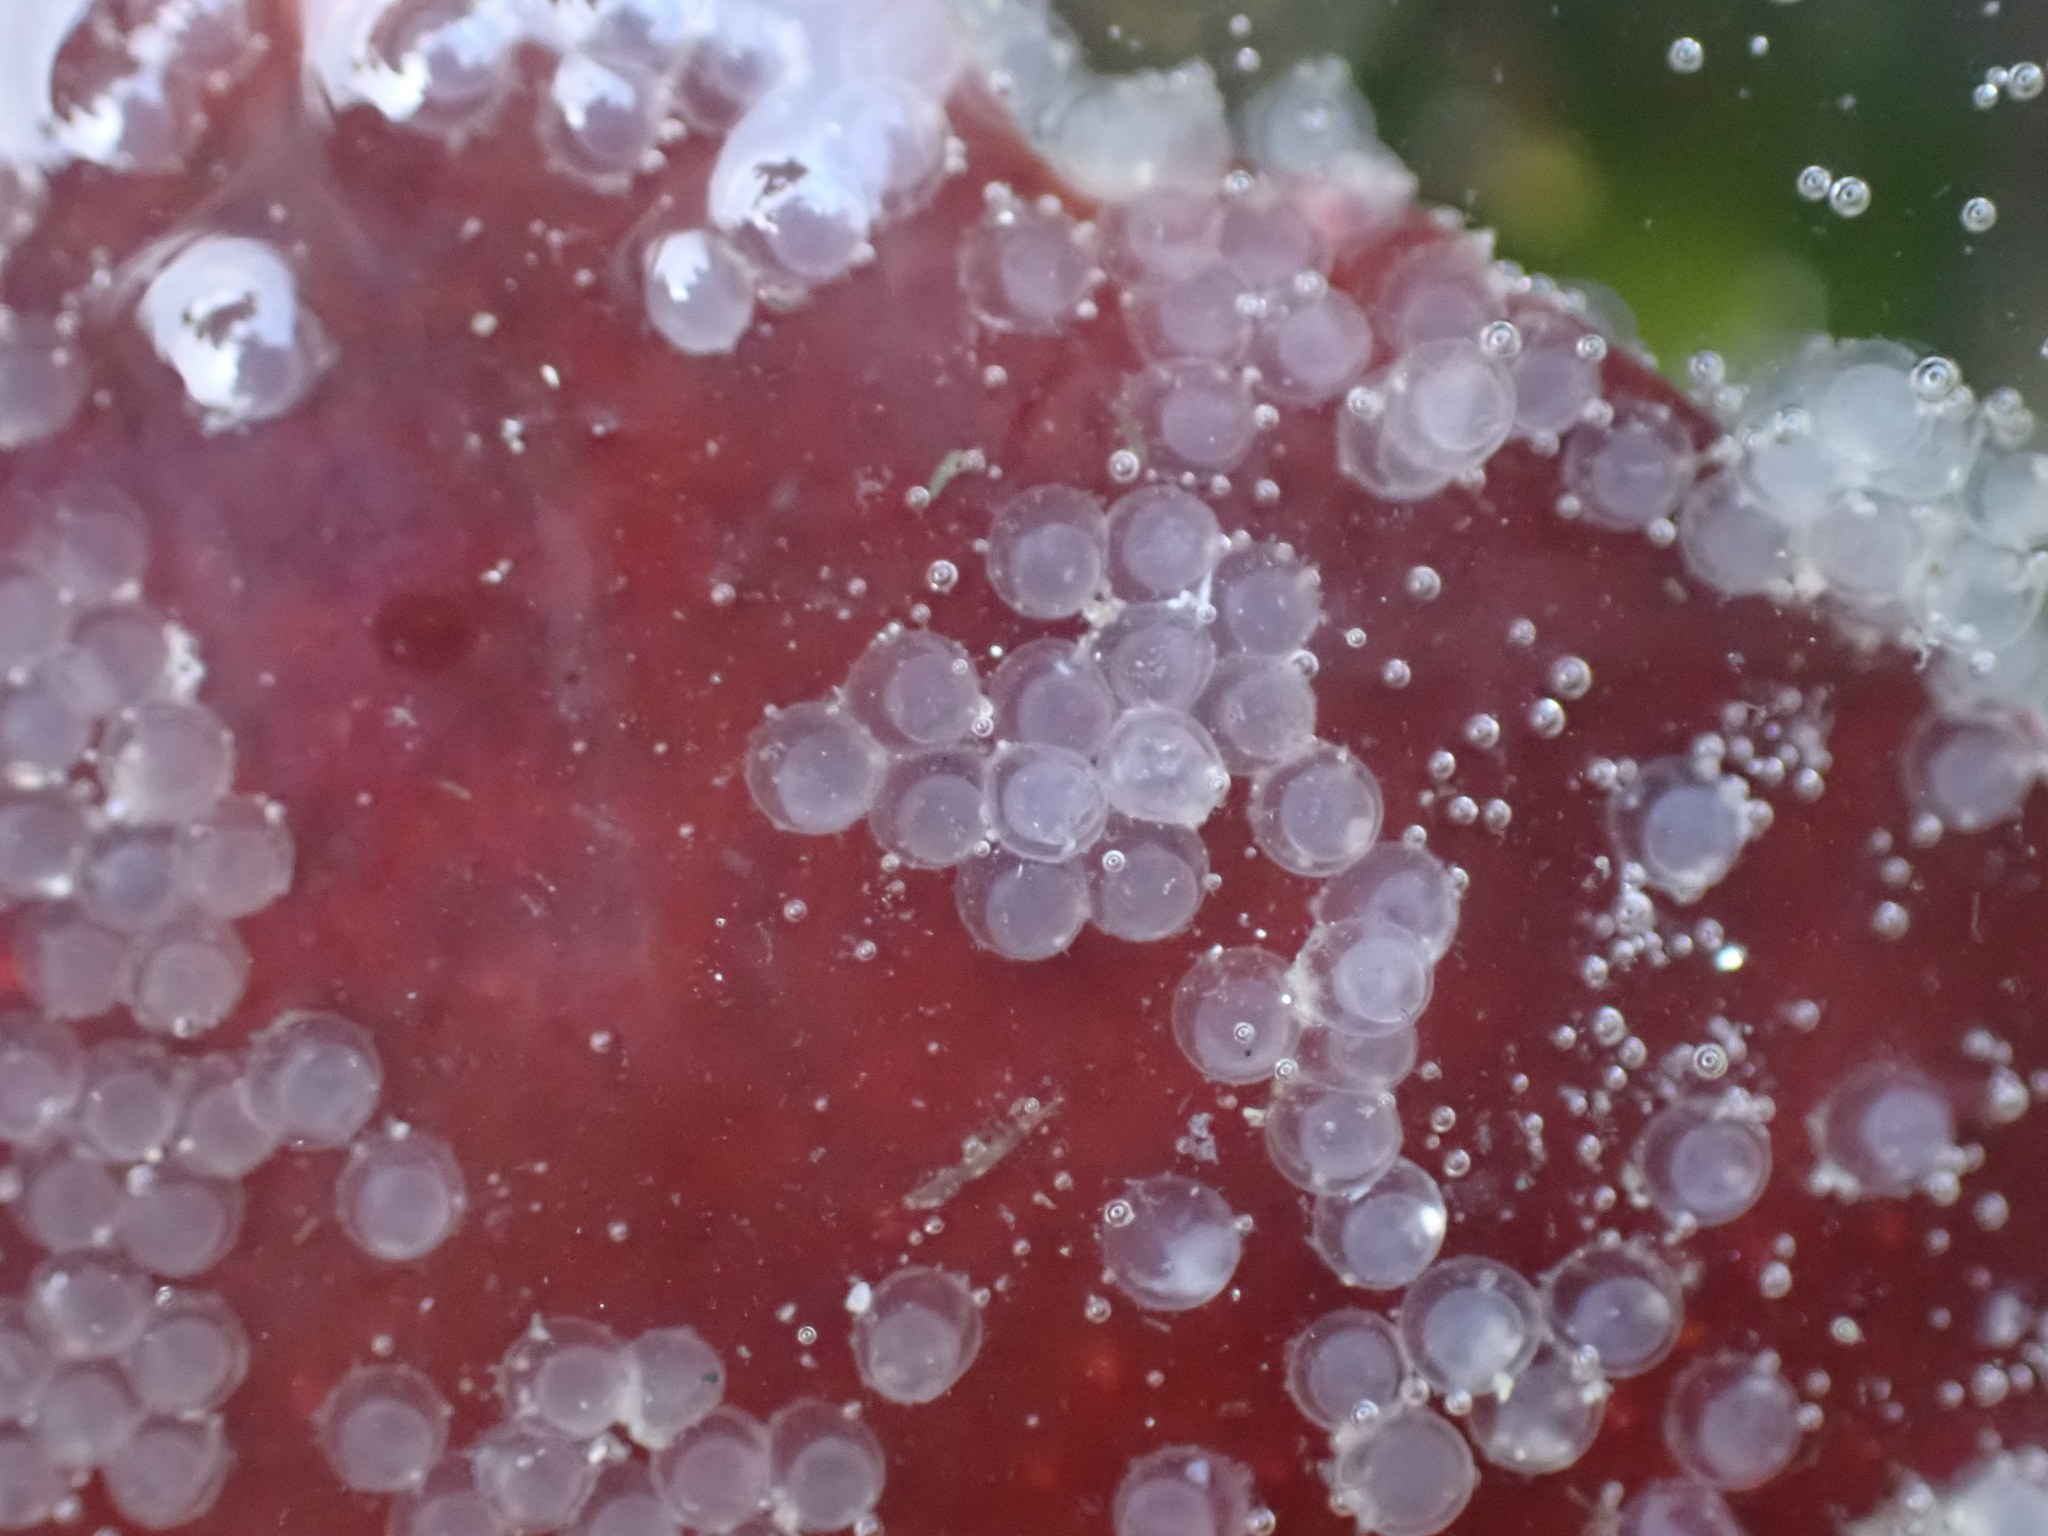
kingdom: Animalia
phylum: Chordata
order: Clupeiformes
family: Clupeidae
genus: Clupea
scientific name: Clupea pallasii
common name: Pacific herring
